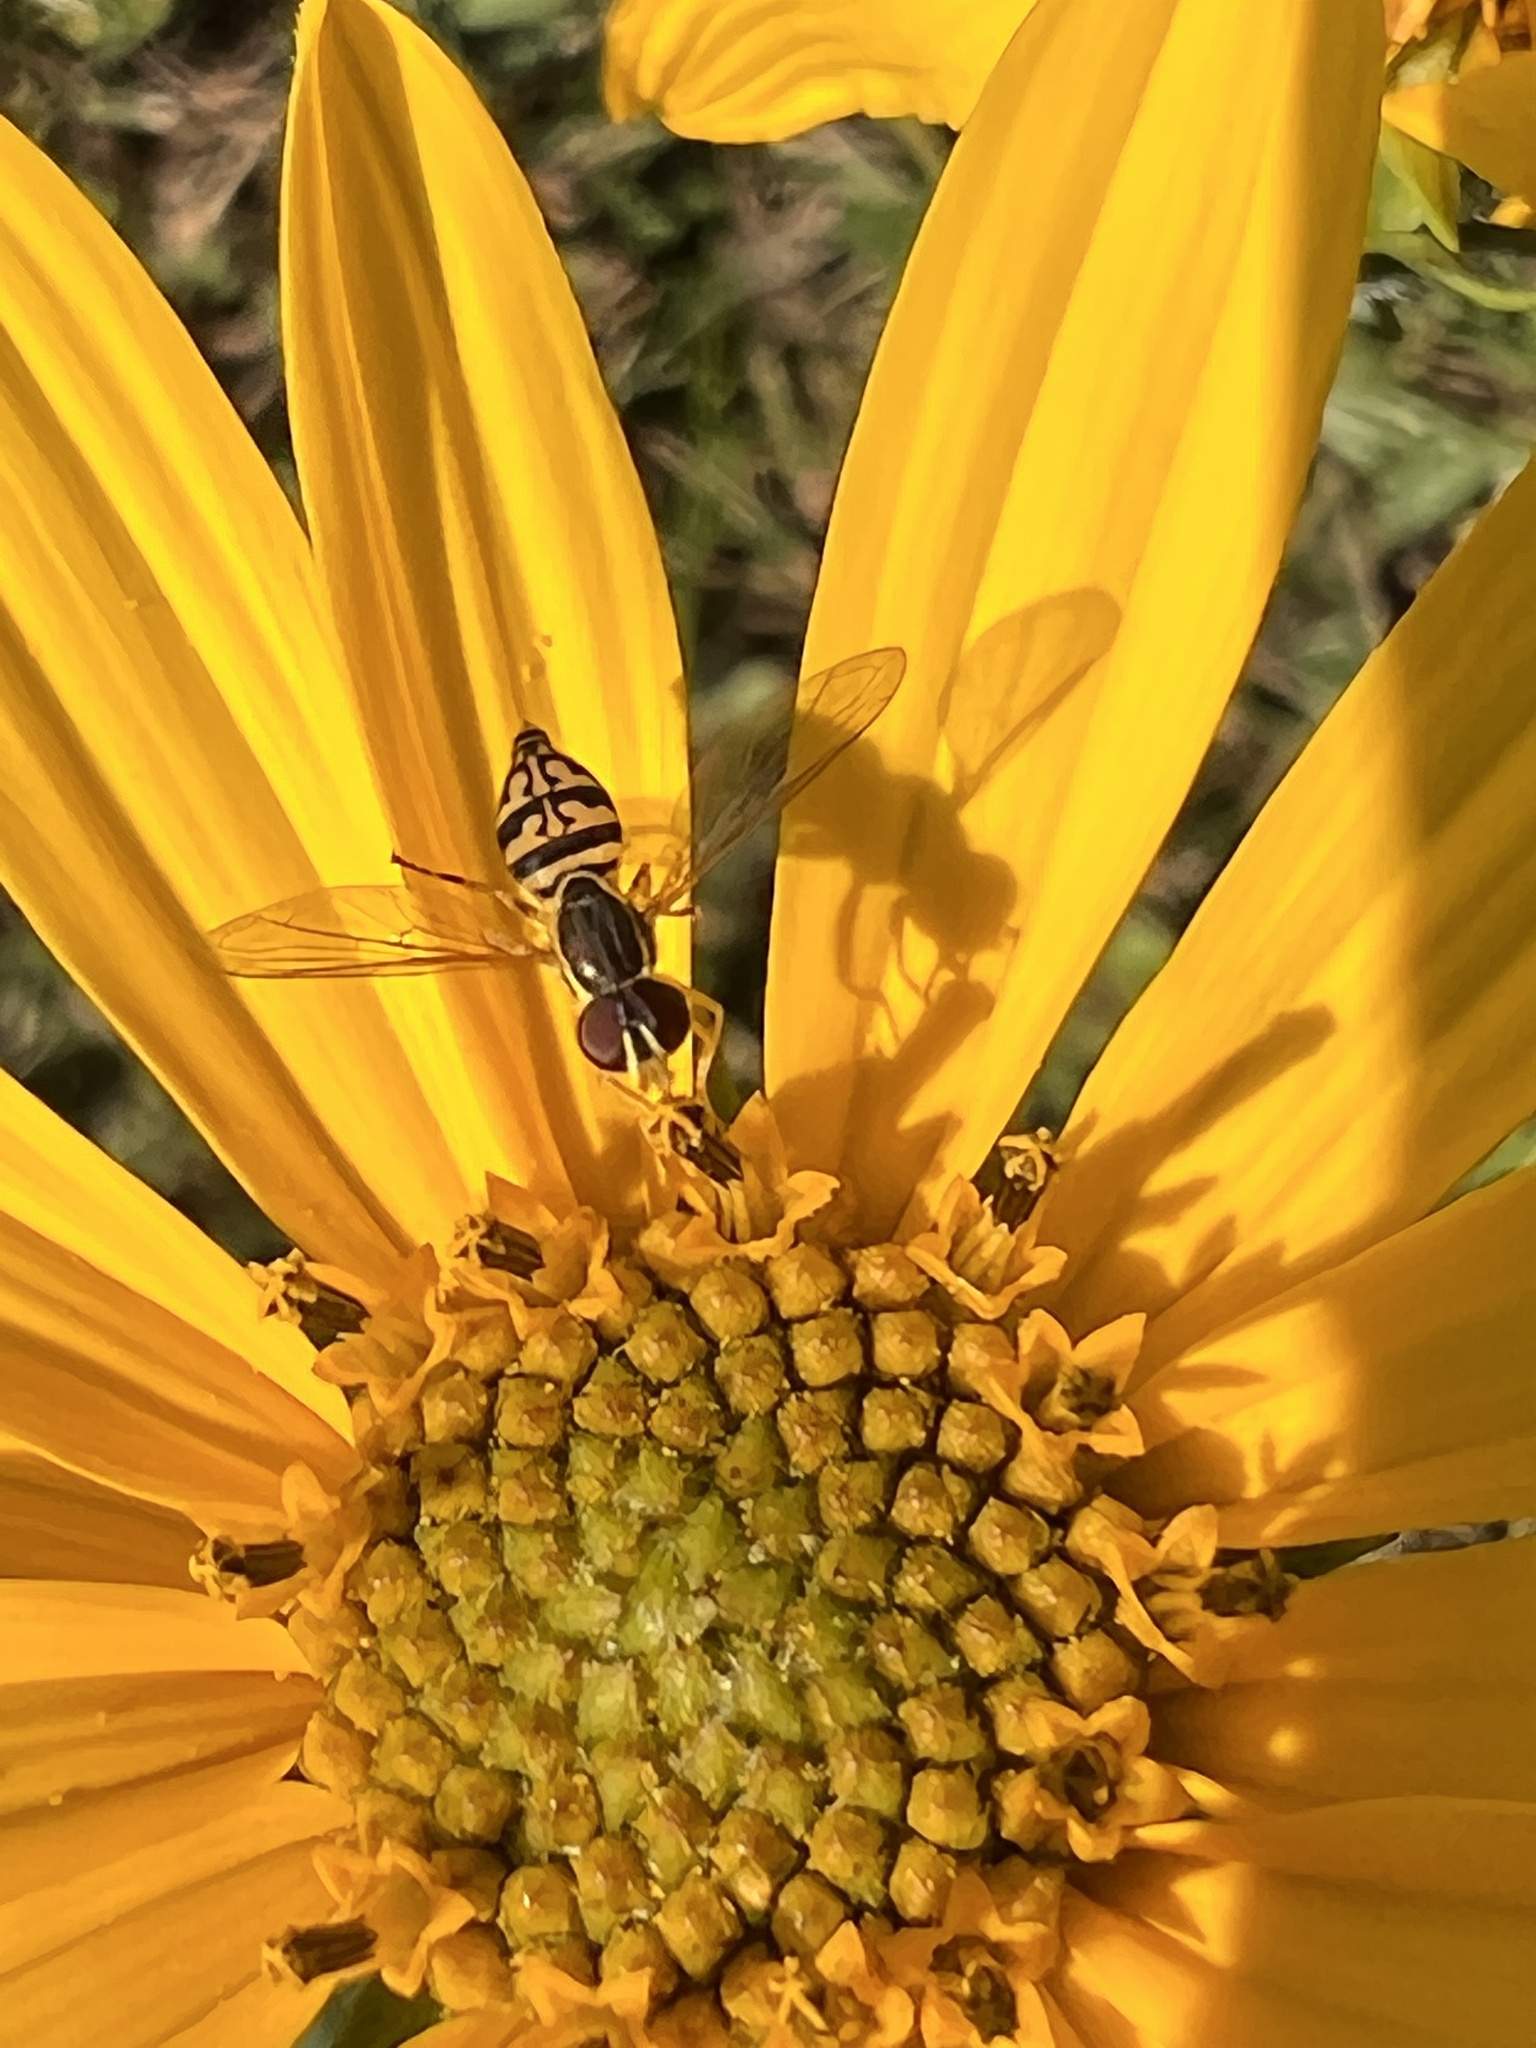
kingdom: Animalia
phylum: Arthropoda
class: Insecta
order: Diptera
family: Syrphidae
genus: Toxomerus
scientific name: Toxomerus geminatus
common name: Eastern calligrapher
